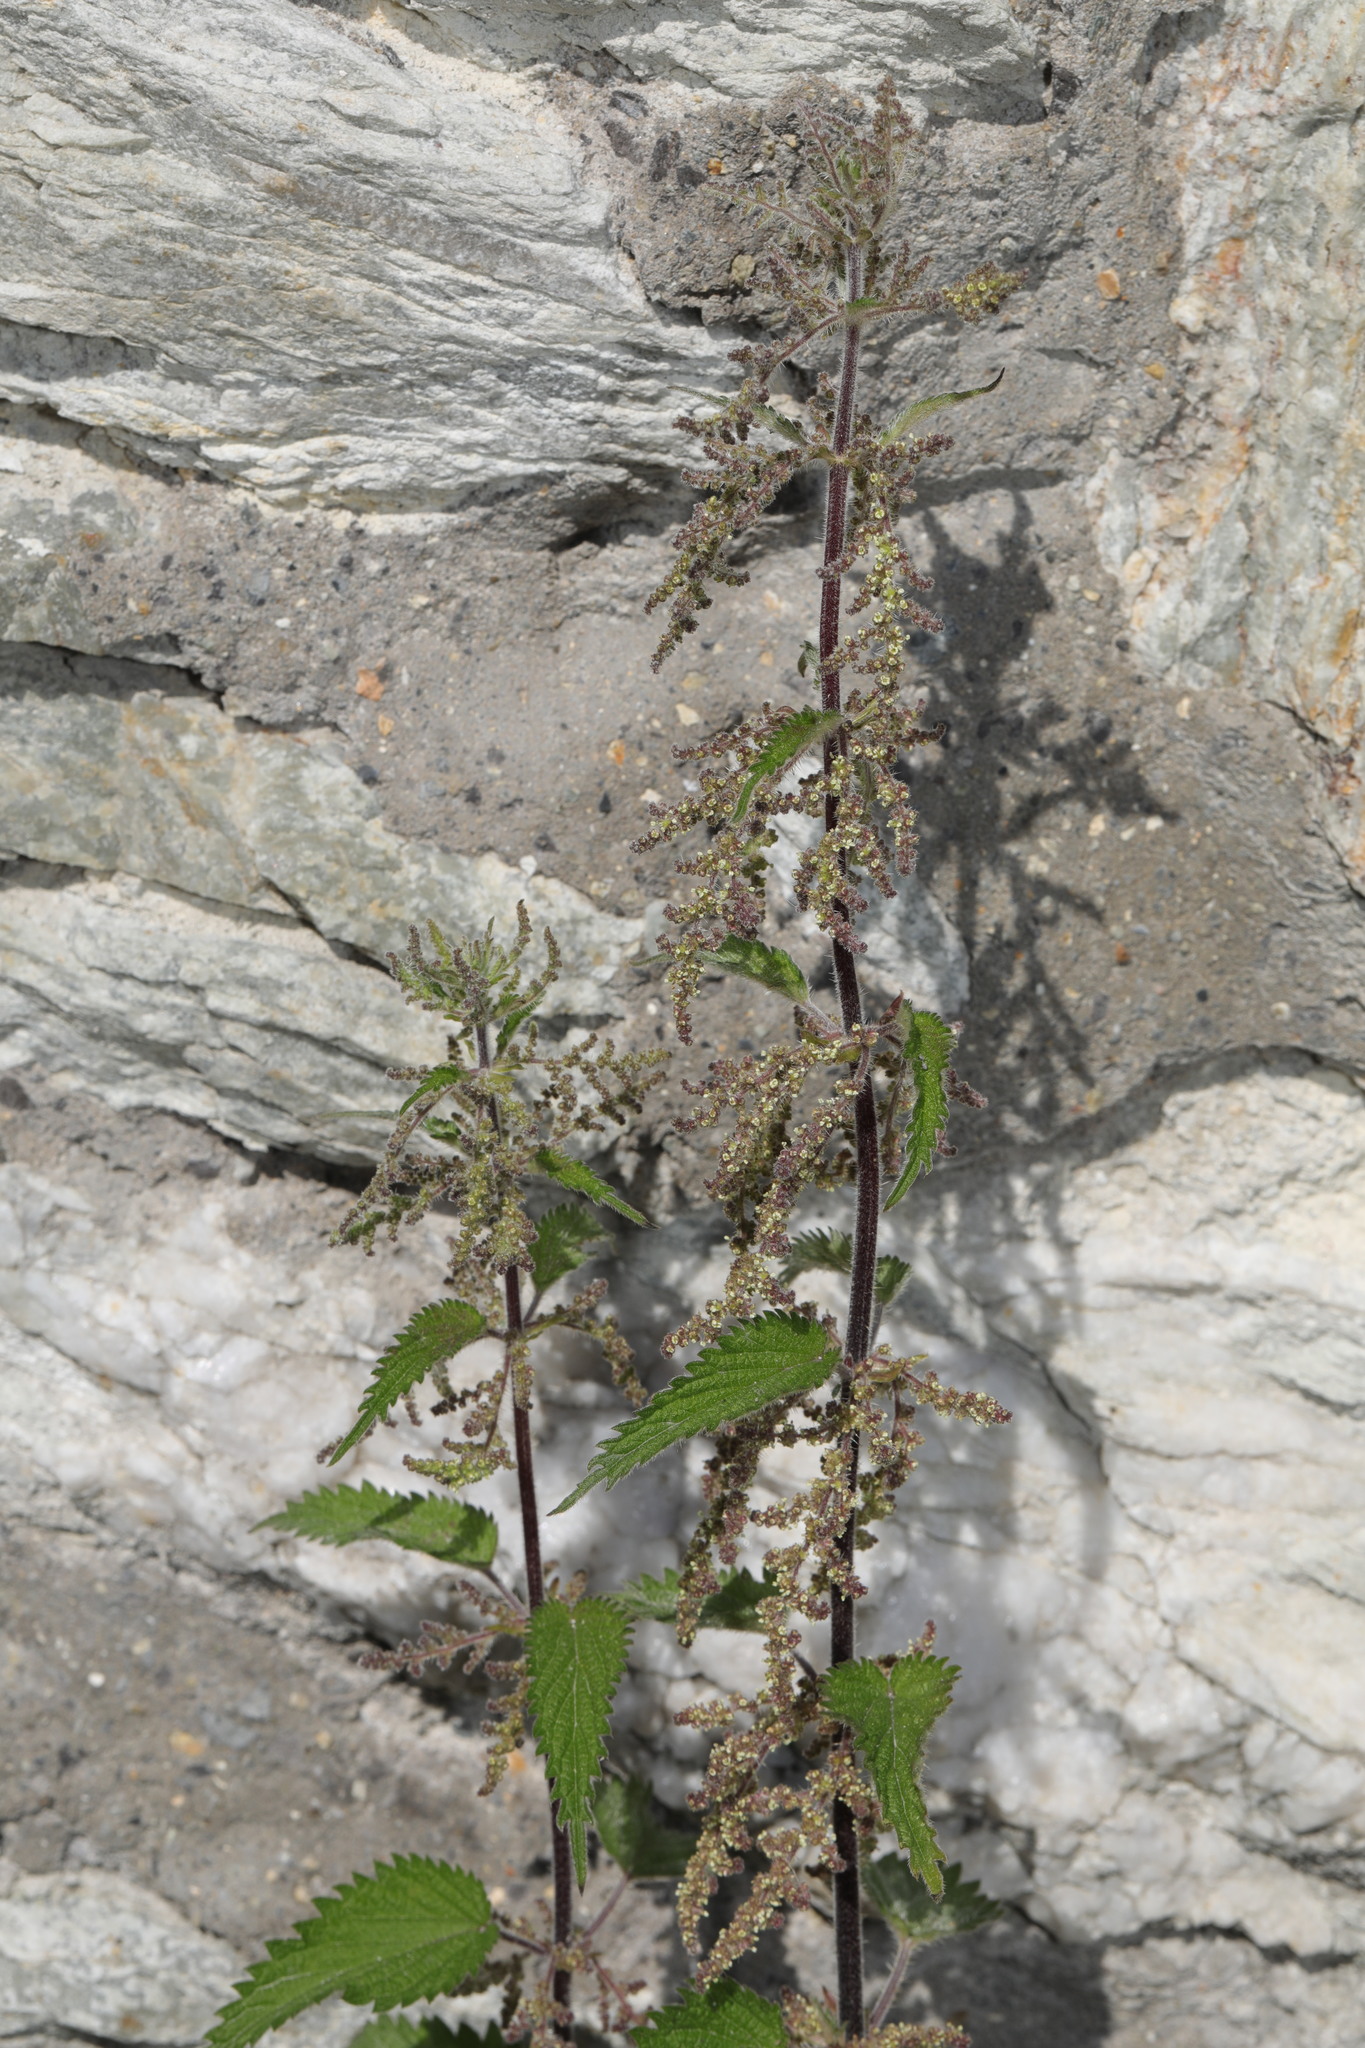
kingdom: Plantae
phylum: Tracheophyta
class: Magnoliopsida
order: Rosales
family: Urticaceae
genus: Urtica
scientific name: Urtica dioica
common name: Common nettle
